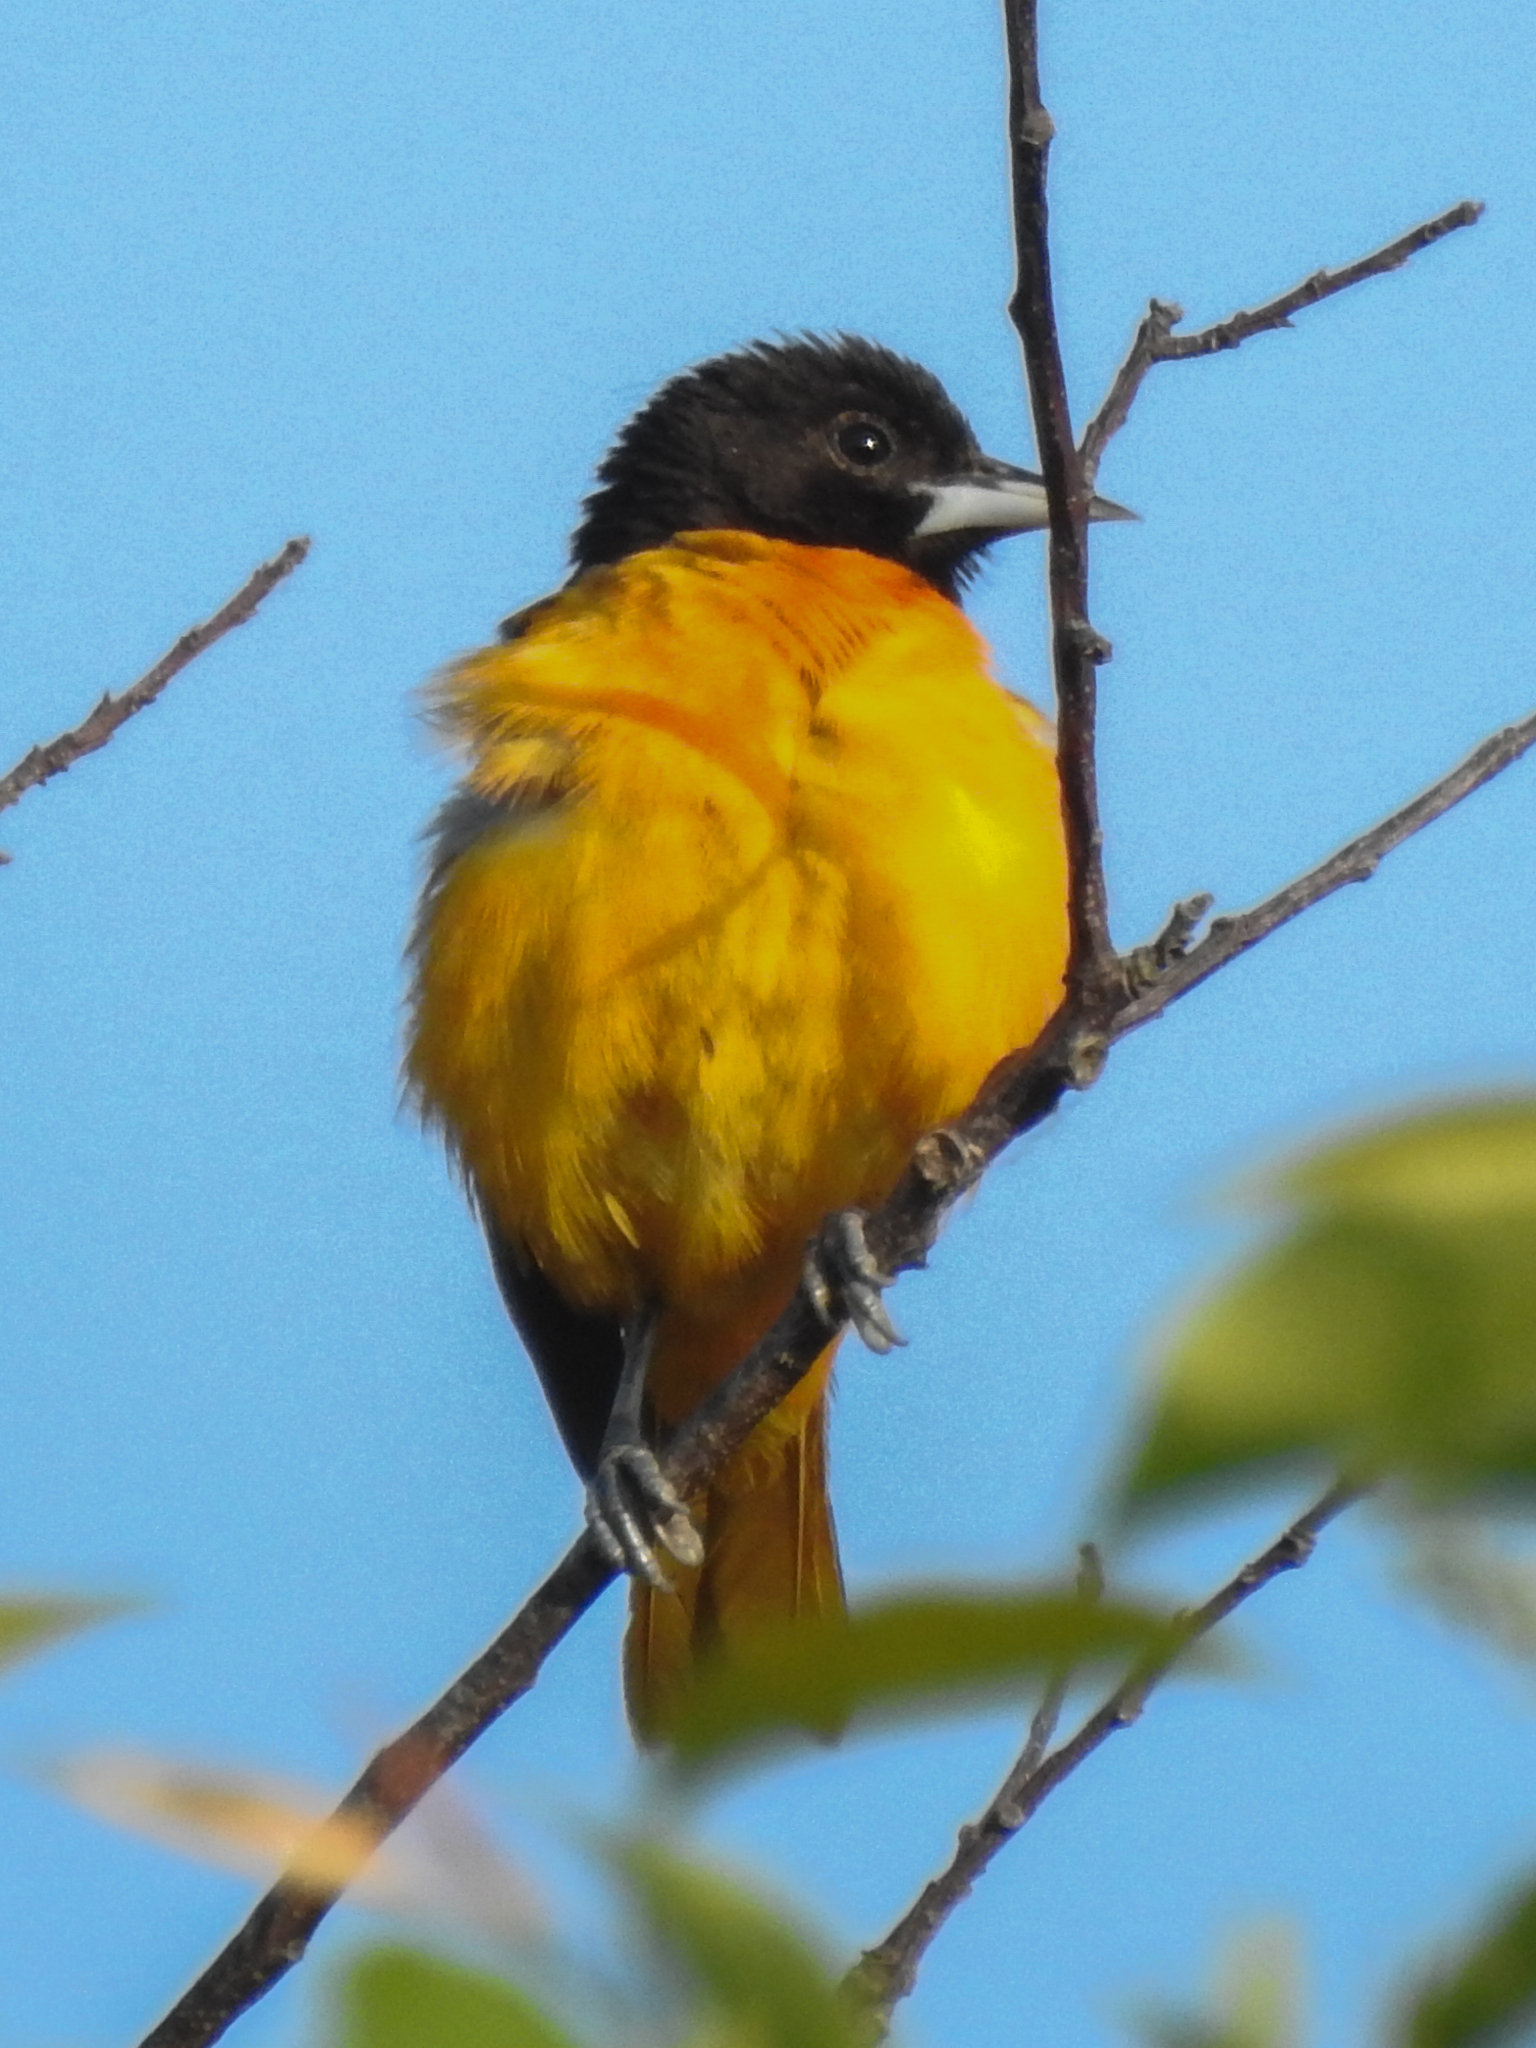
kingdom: Animalia
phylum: Chordata
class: Aves
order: Passeriformes
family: Icteridae
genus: Icterus
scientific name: Icterus galbula
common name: Baltimore oriole
